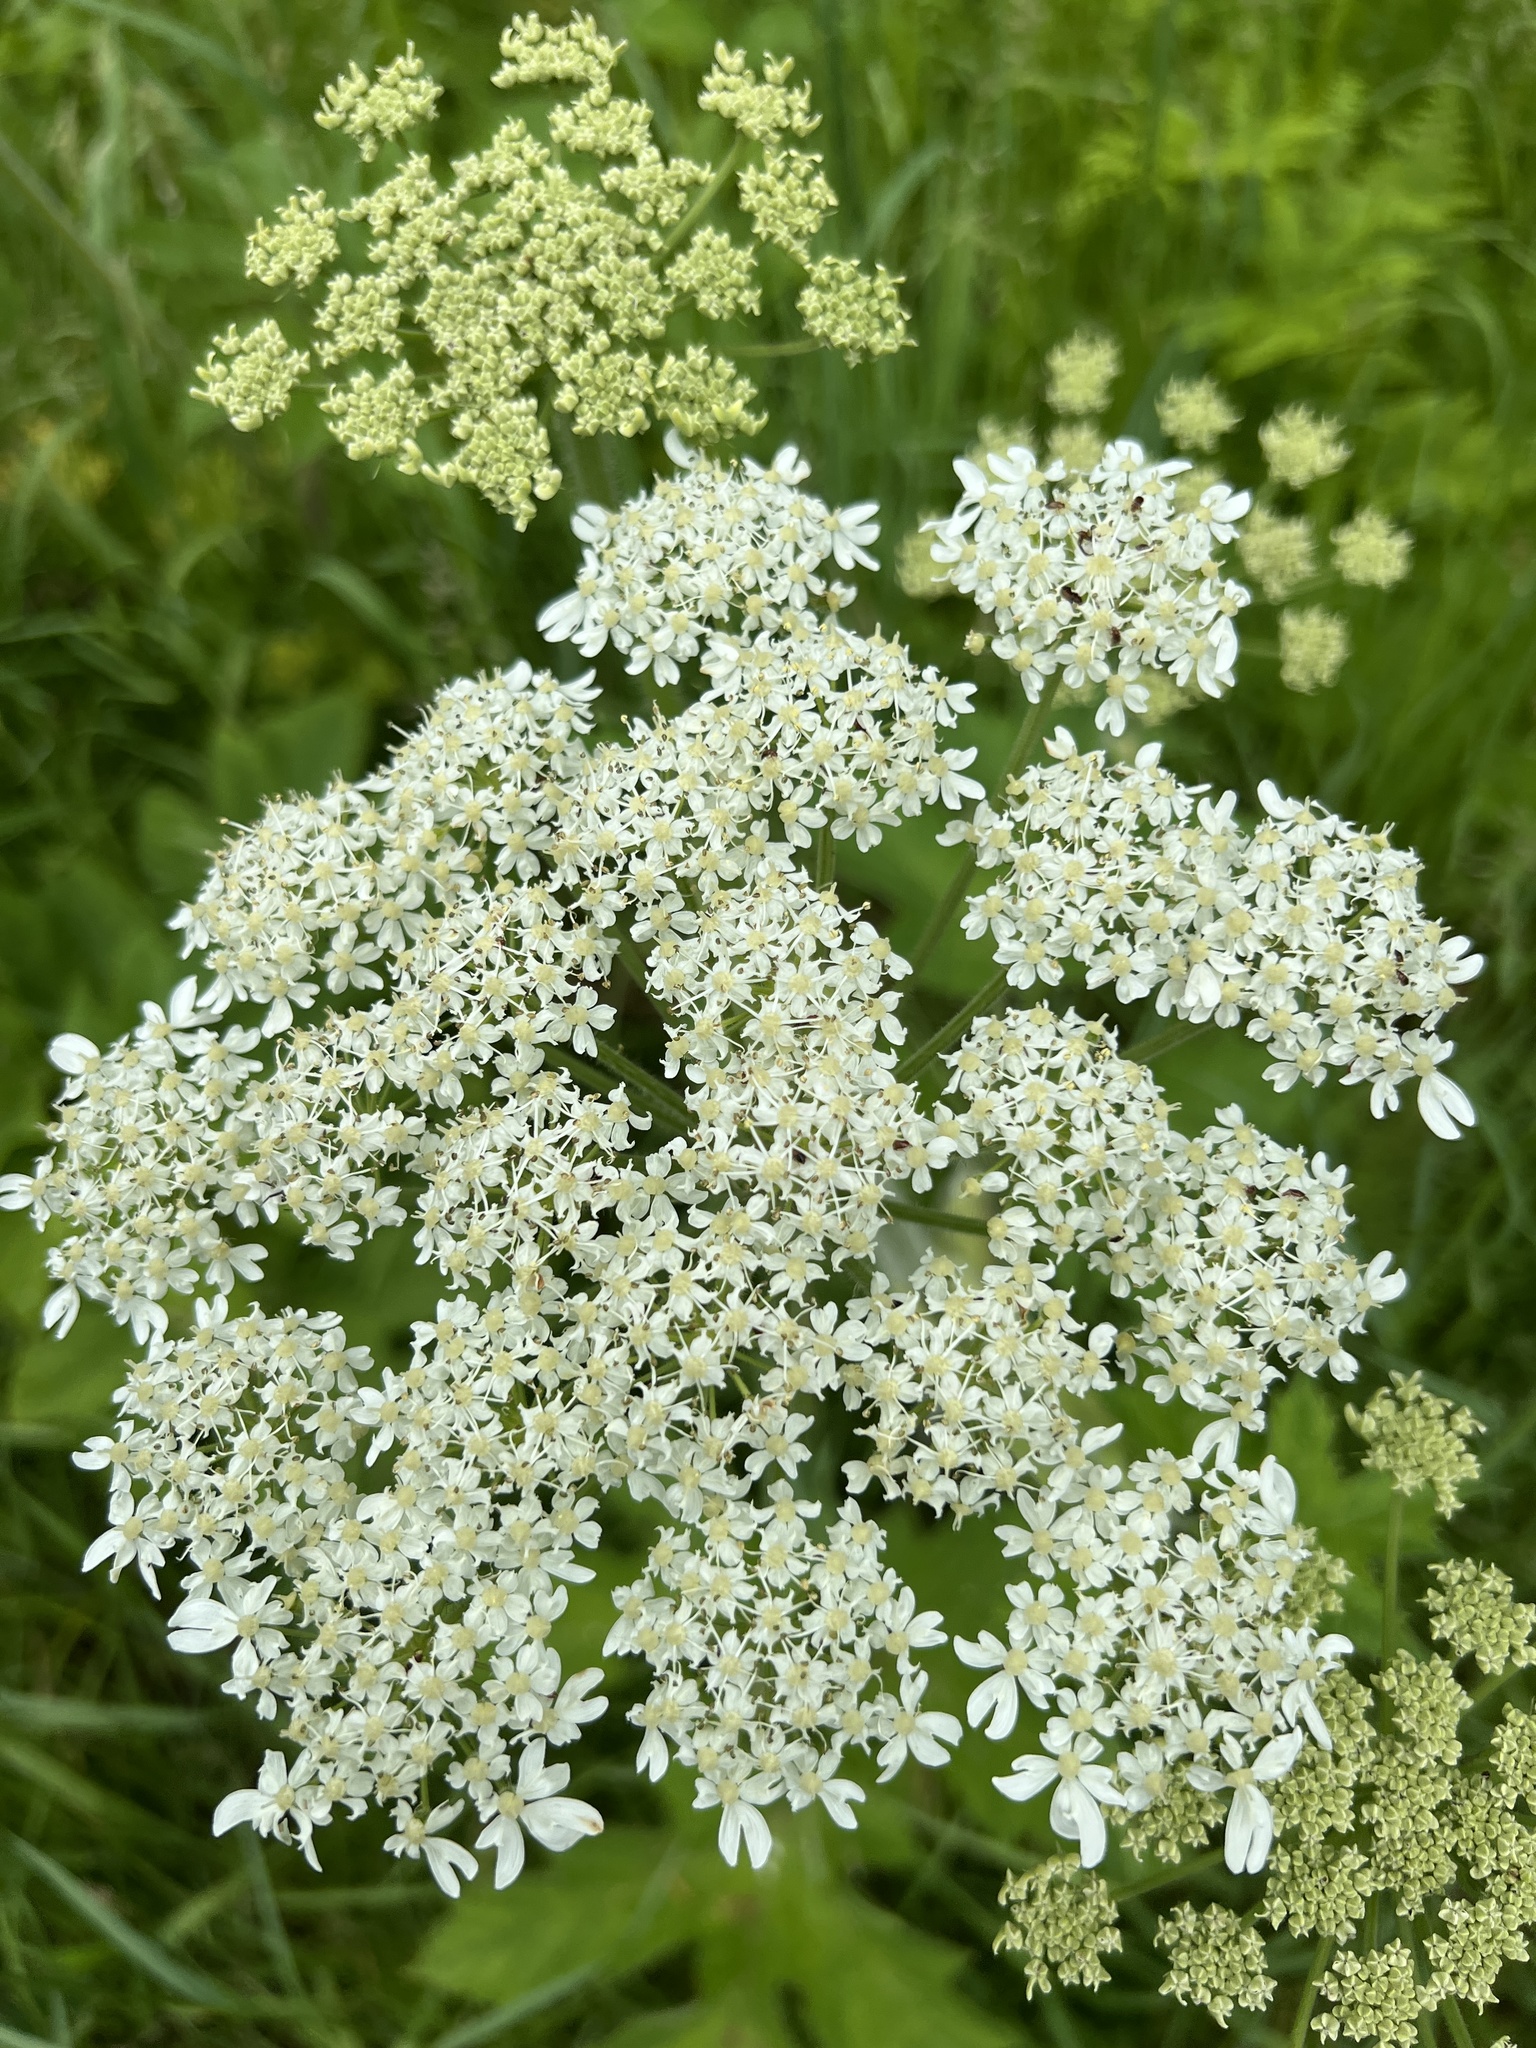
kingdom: Plantae
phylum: Tracheophyta
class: Magnoliopsida
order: Apiales
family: Apiaceae
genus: Heracleum
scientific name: Heracleum maximum
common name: American cow parsnip
